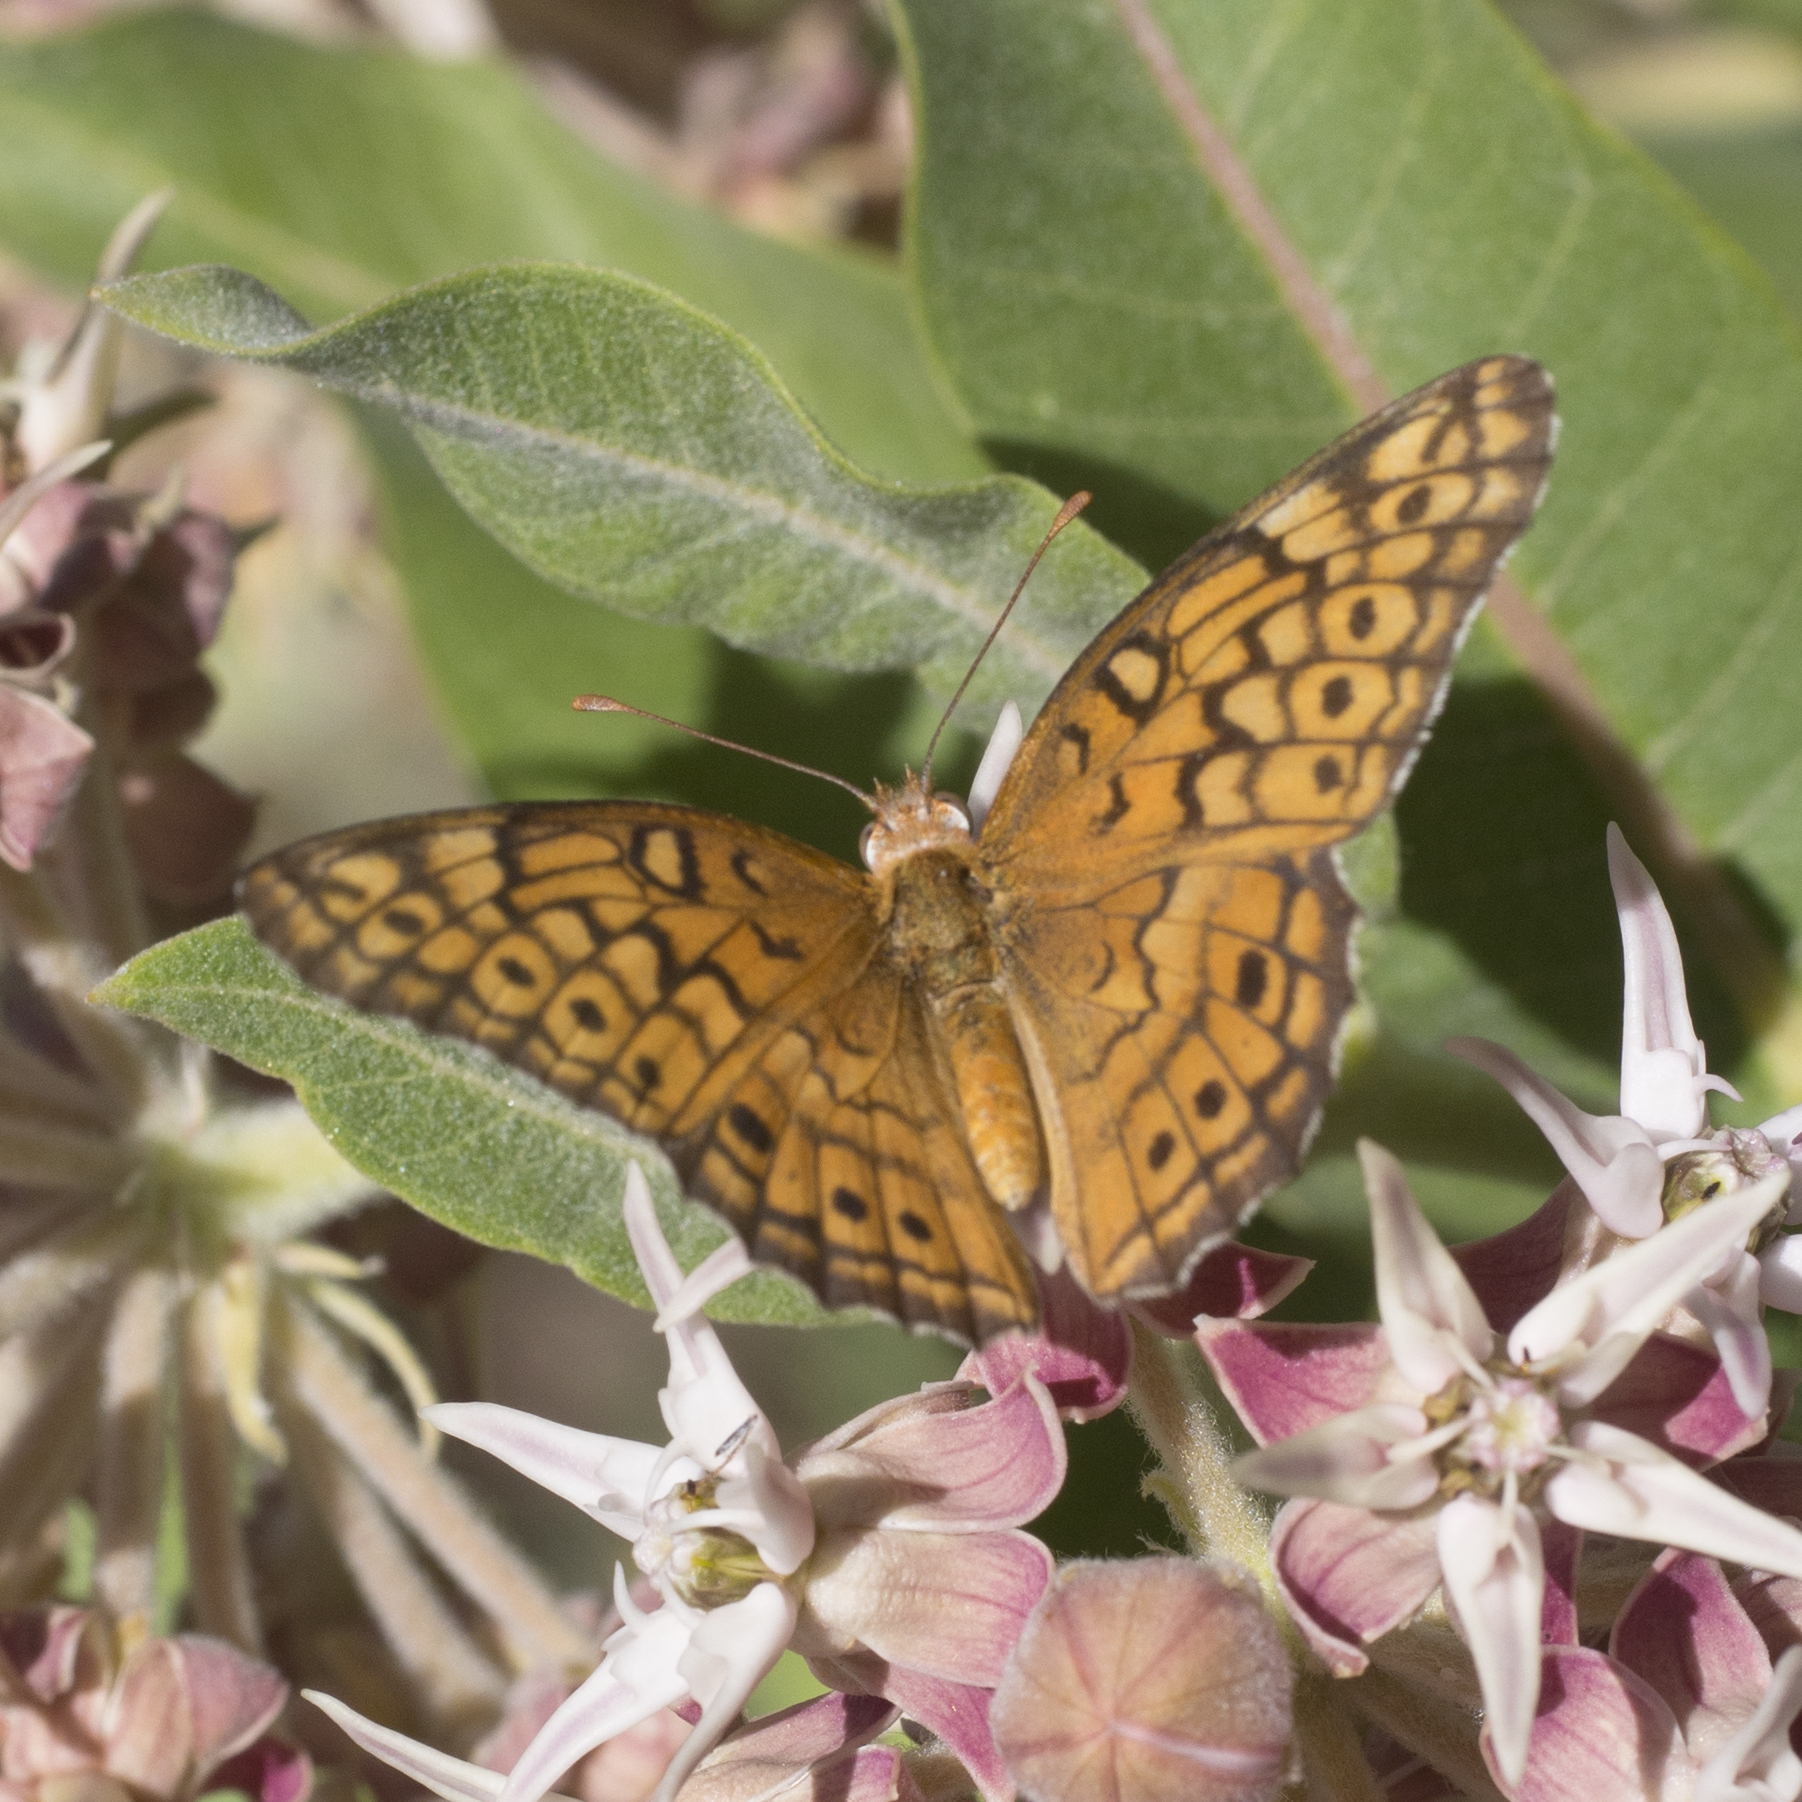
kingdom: Animalia
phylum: Arthropoda
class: Insecta
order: Lepidoptera
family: Nymphalidae
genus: Euptoieta
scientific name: Euptoieta claudia
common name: Variegated fritillary
